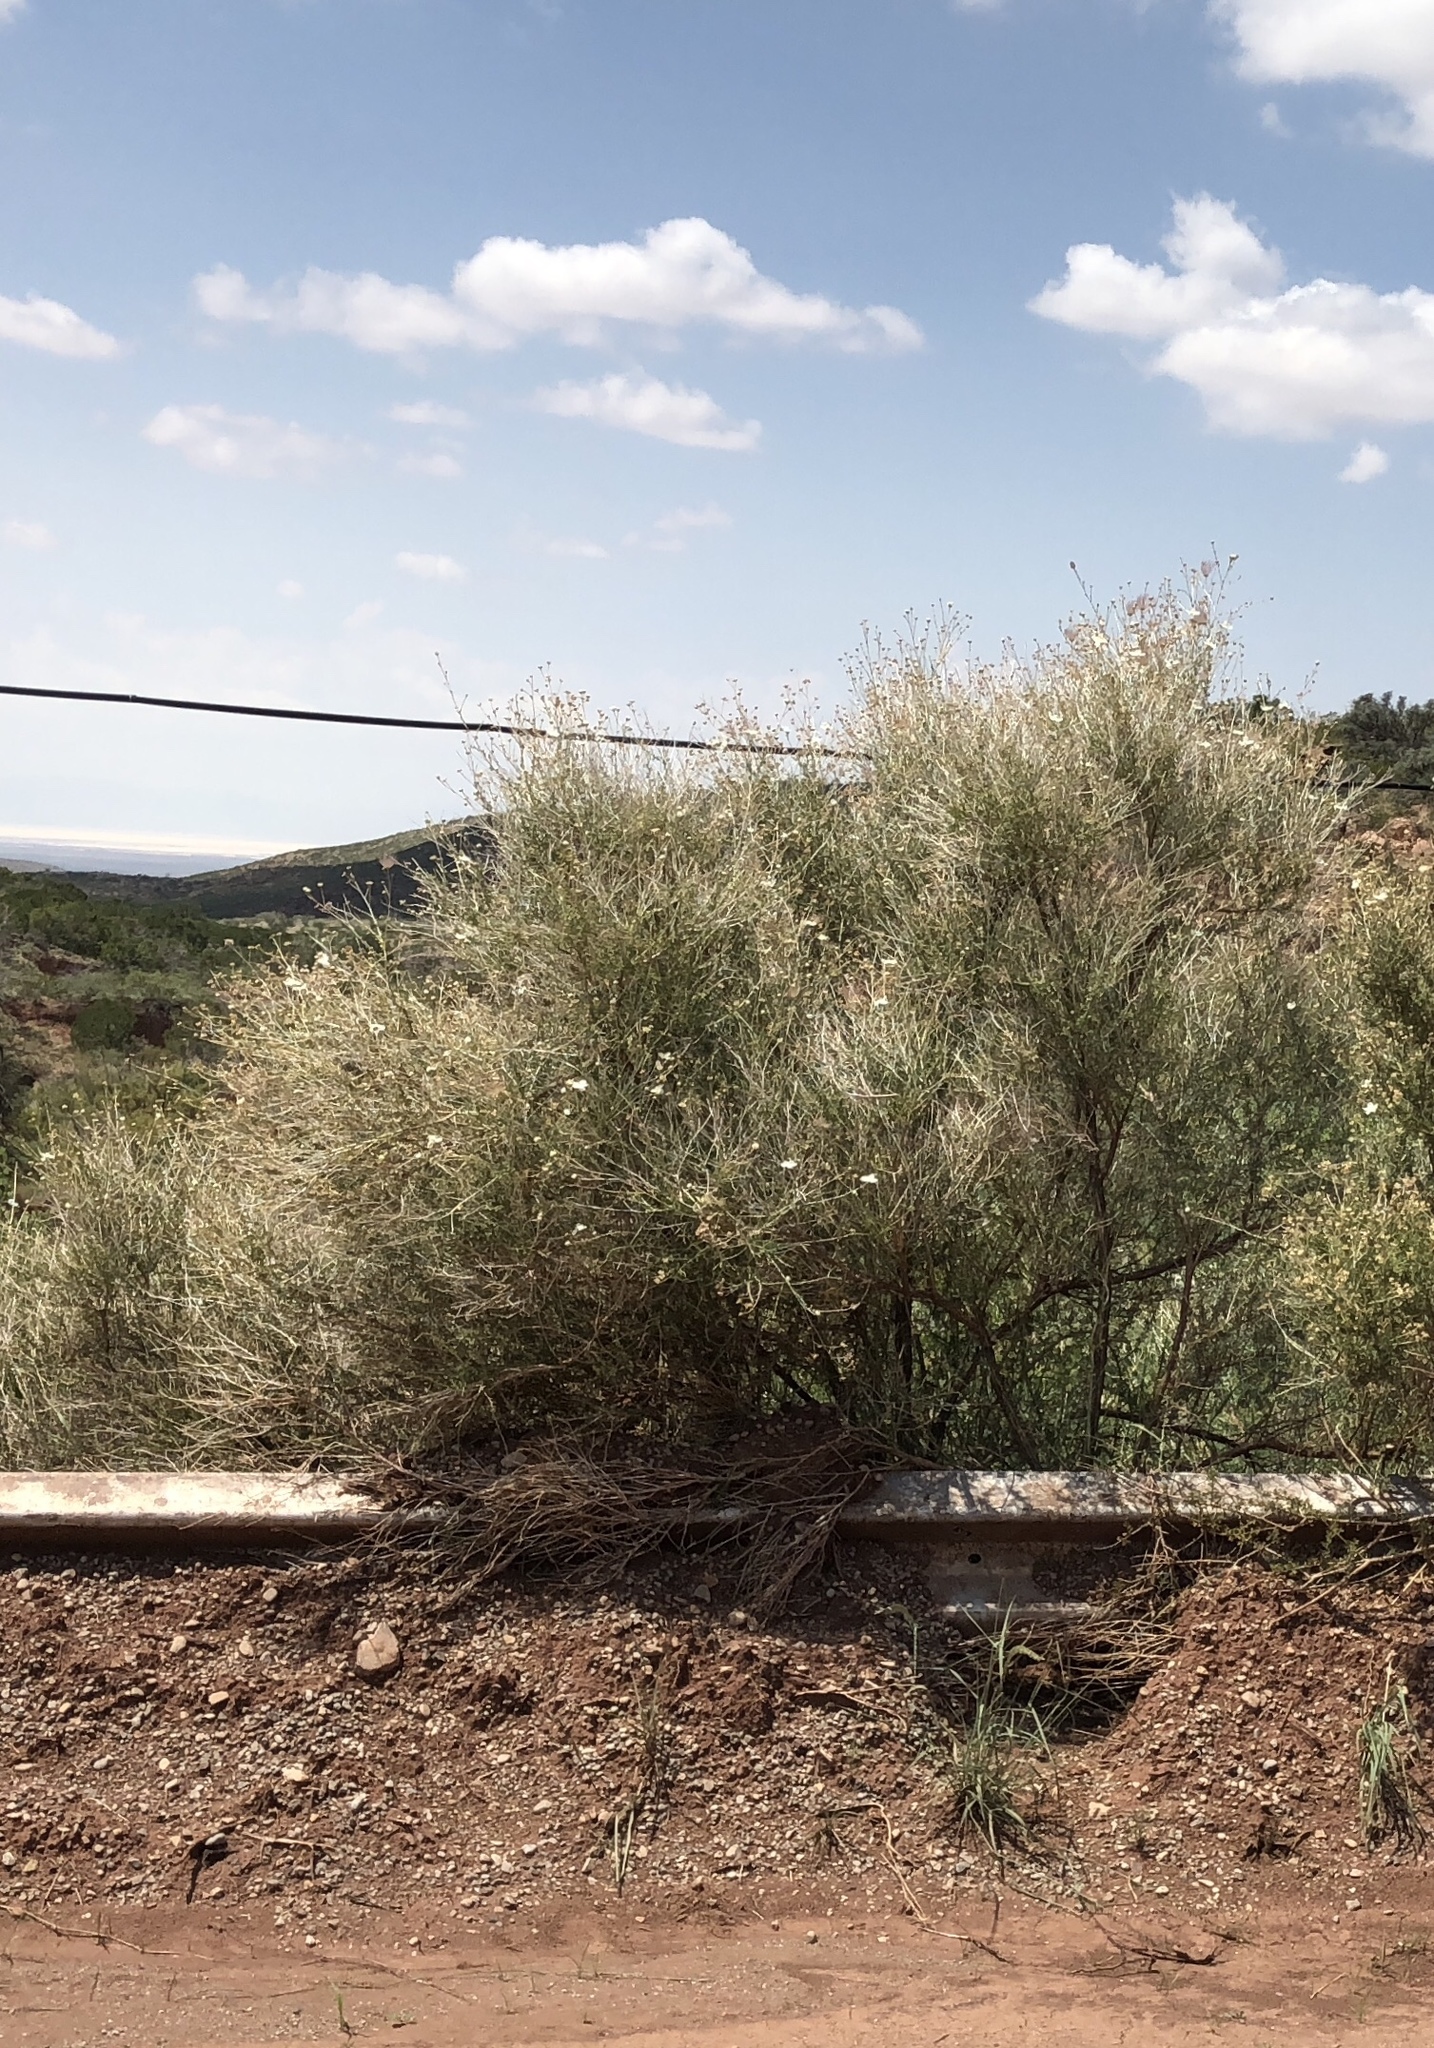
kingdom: Plantae
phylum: Tracheophyta
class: Magnoliopsida
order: Rosales
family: Rosaceae
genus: Fallugia
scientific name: Fallugia paradoxa
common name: Apache-plume
